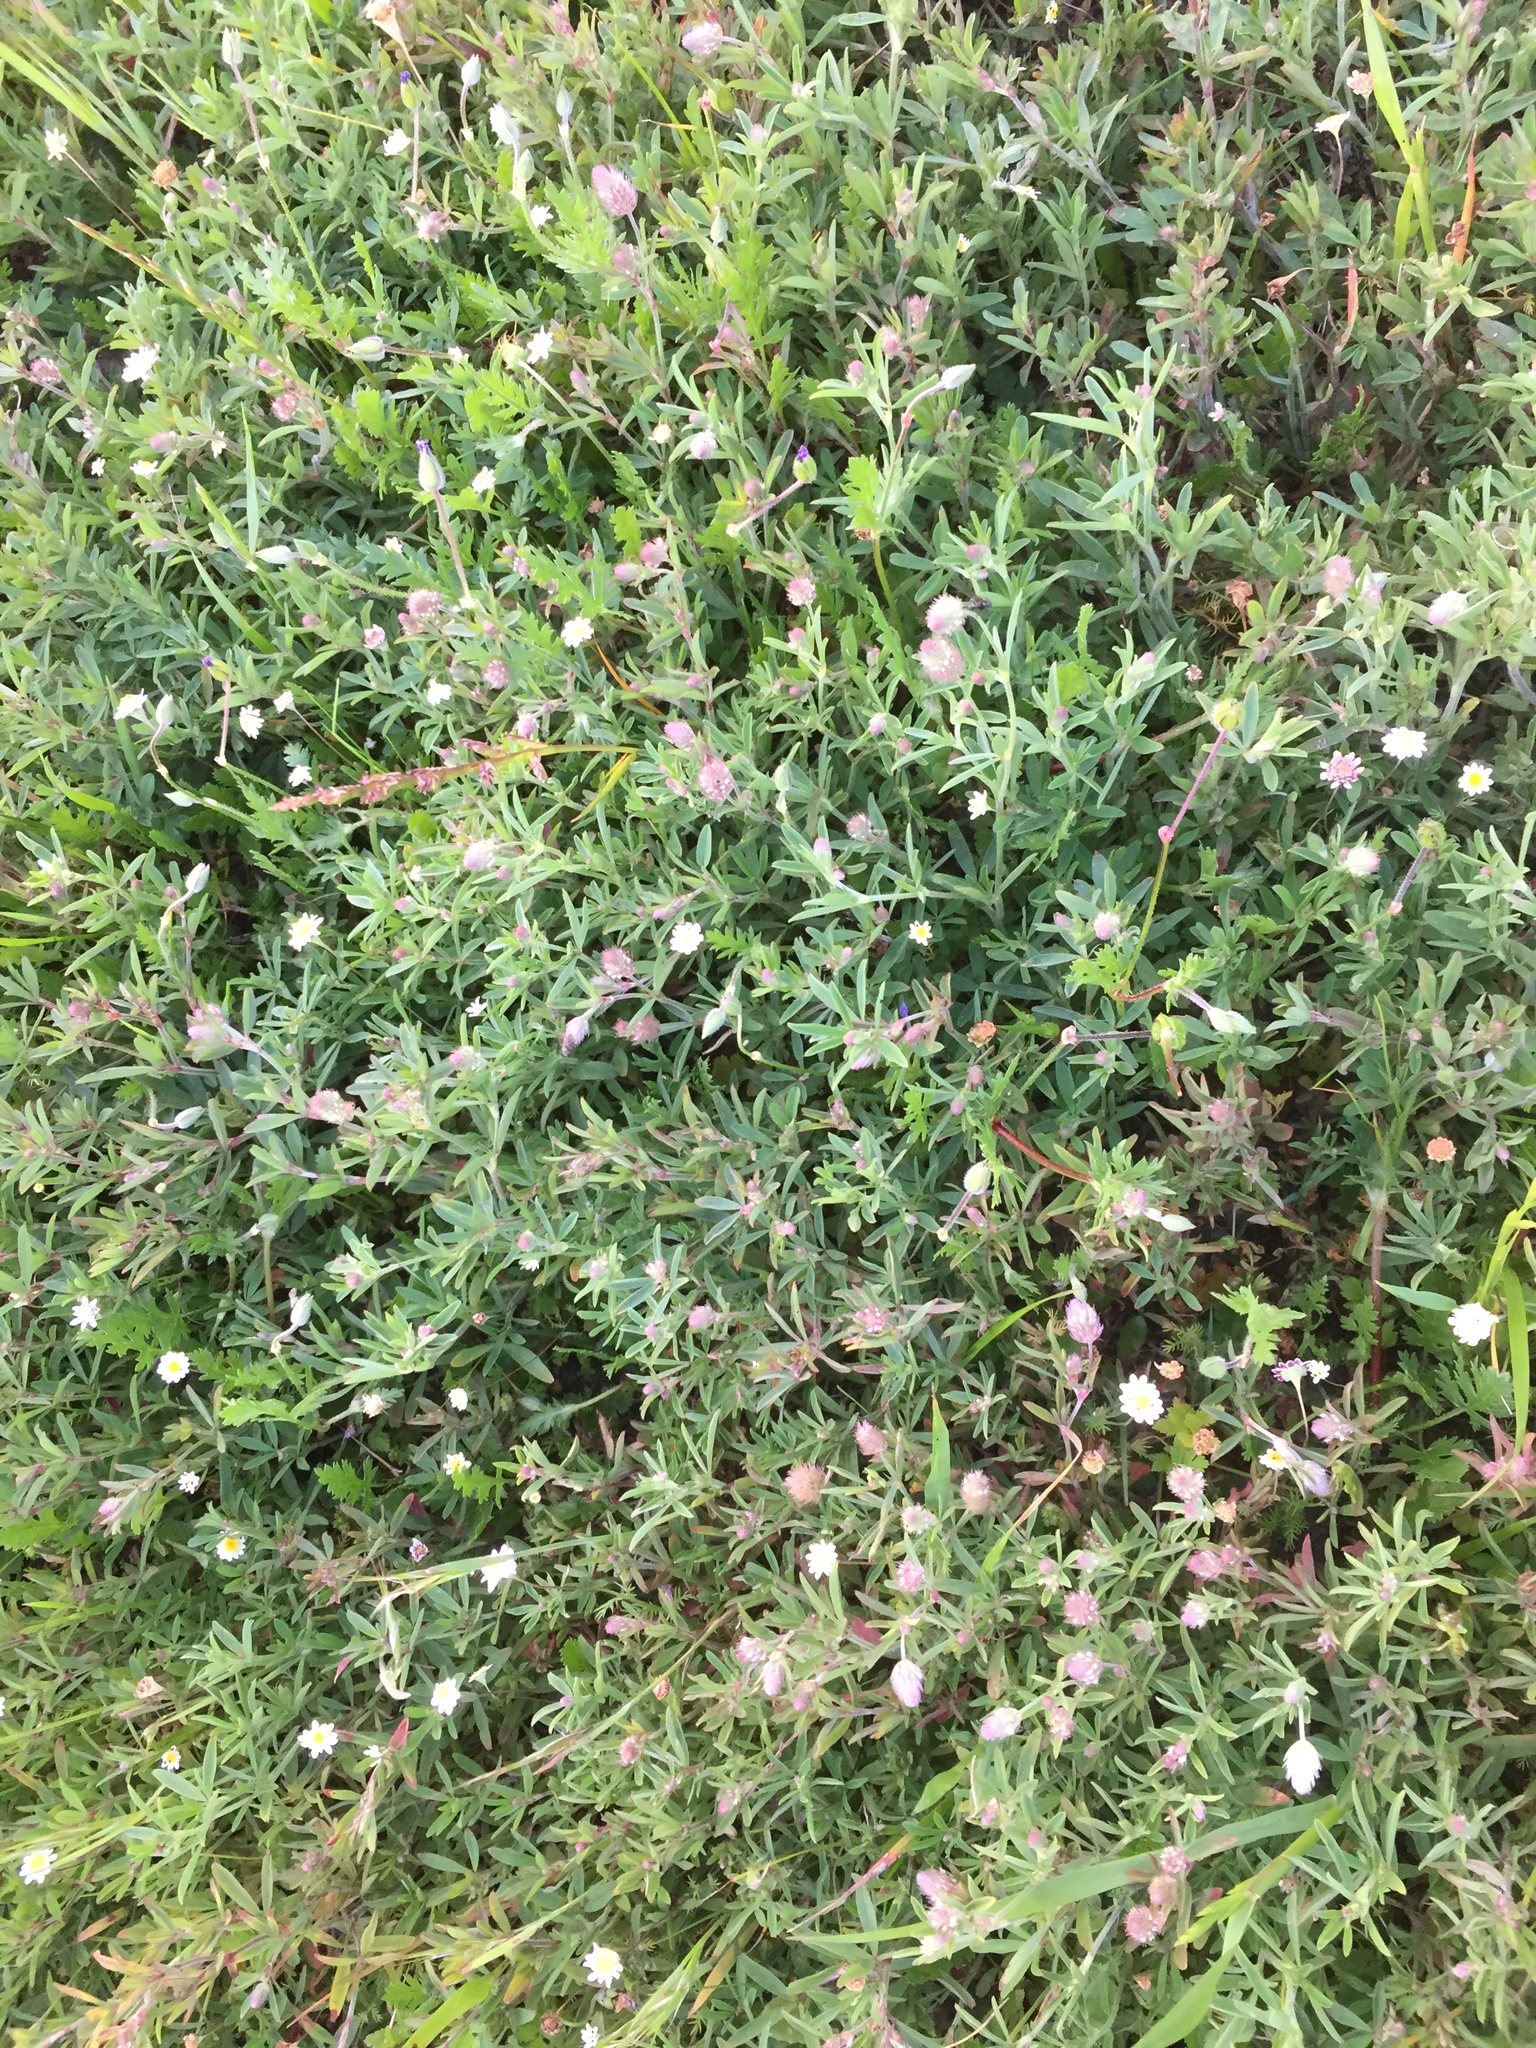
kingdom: Plantae
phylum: Tracheophyta
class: Magnoliopsida
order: Fabales
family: Fabaceae
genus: Trifolium
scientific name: Trifolium arvense
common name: Hare's-foot clover
